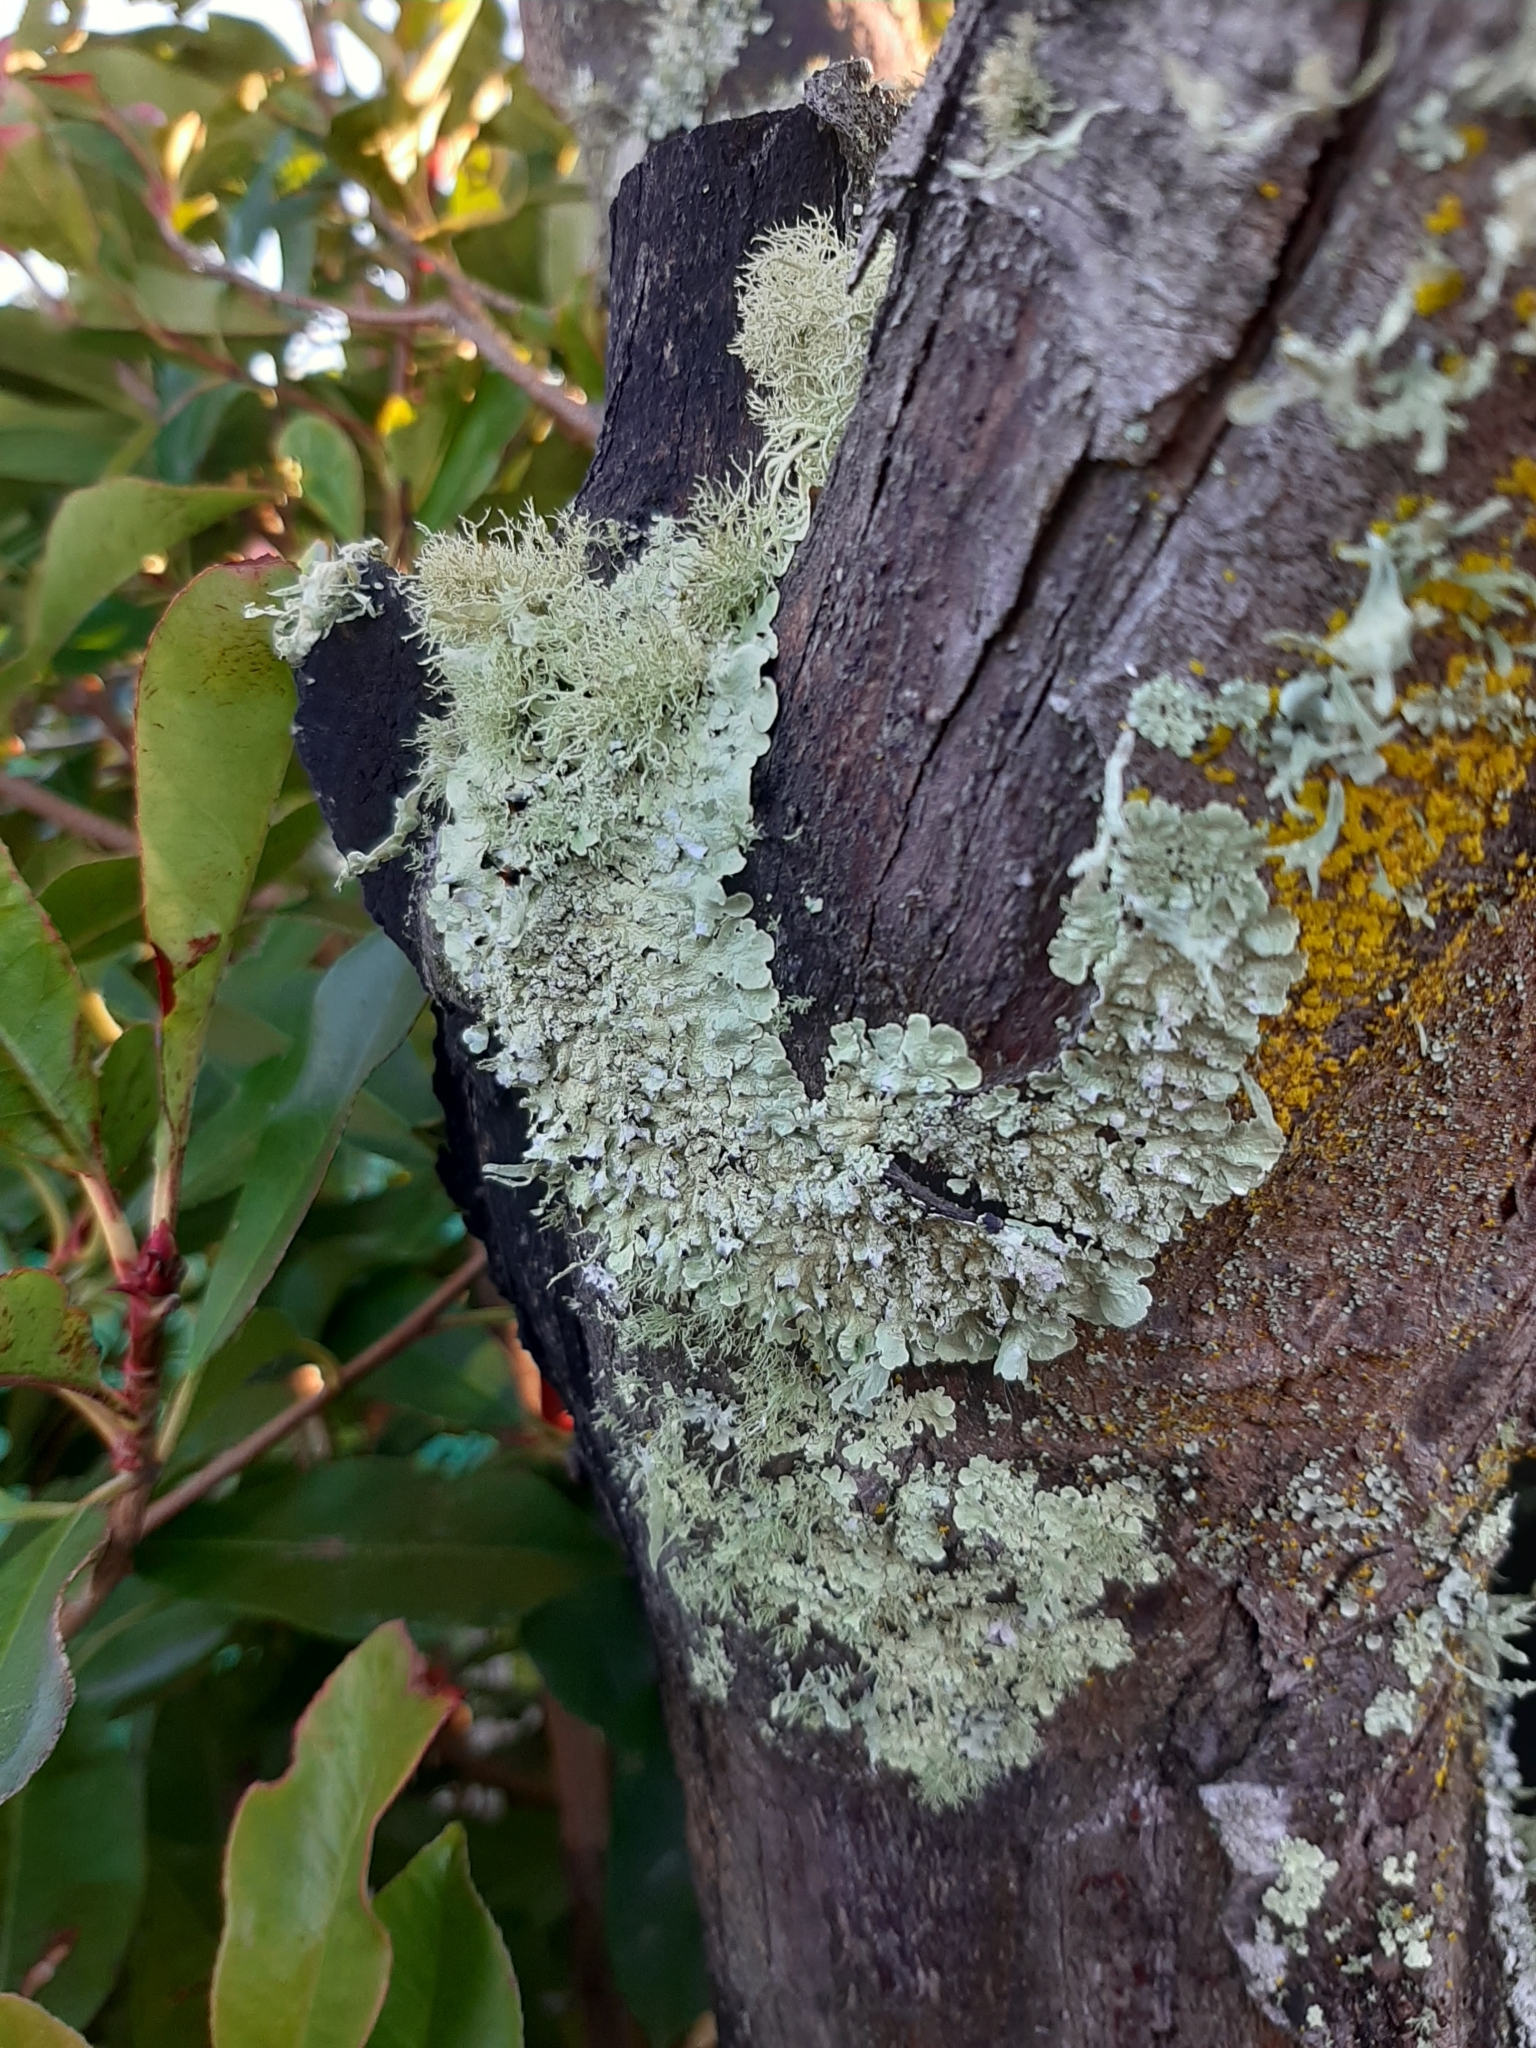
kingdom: Fungi
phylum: Ascomycota
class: Lecanoromycetes
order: Lecanorales
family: Parmeliaceae
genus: Flavoparmelia
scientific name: Flavoparmelia haysomii
